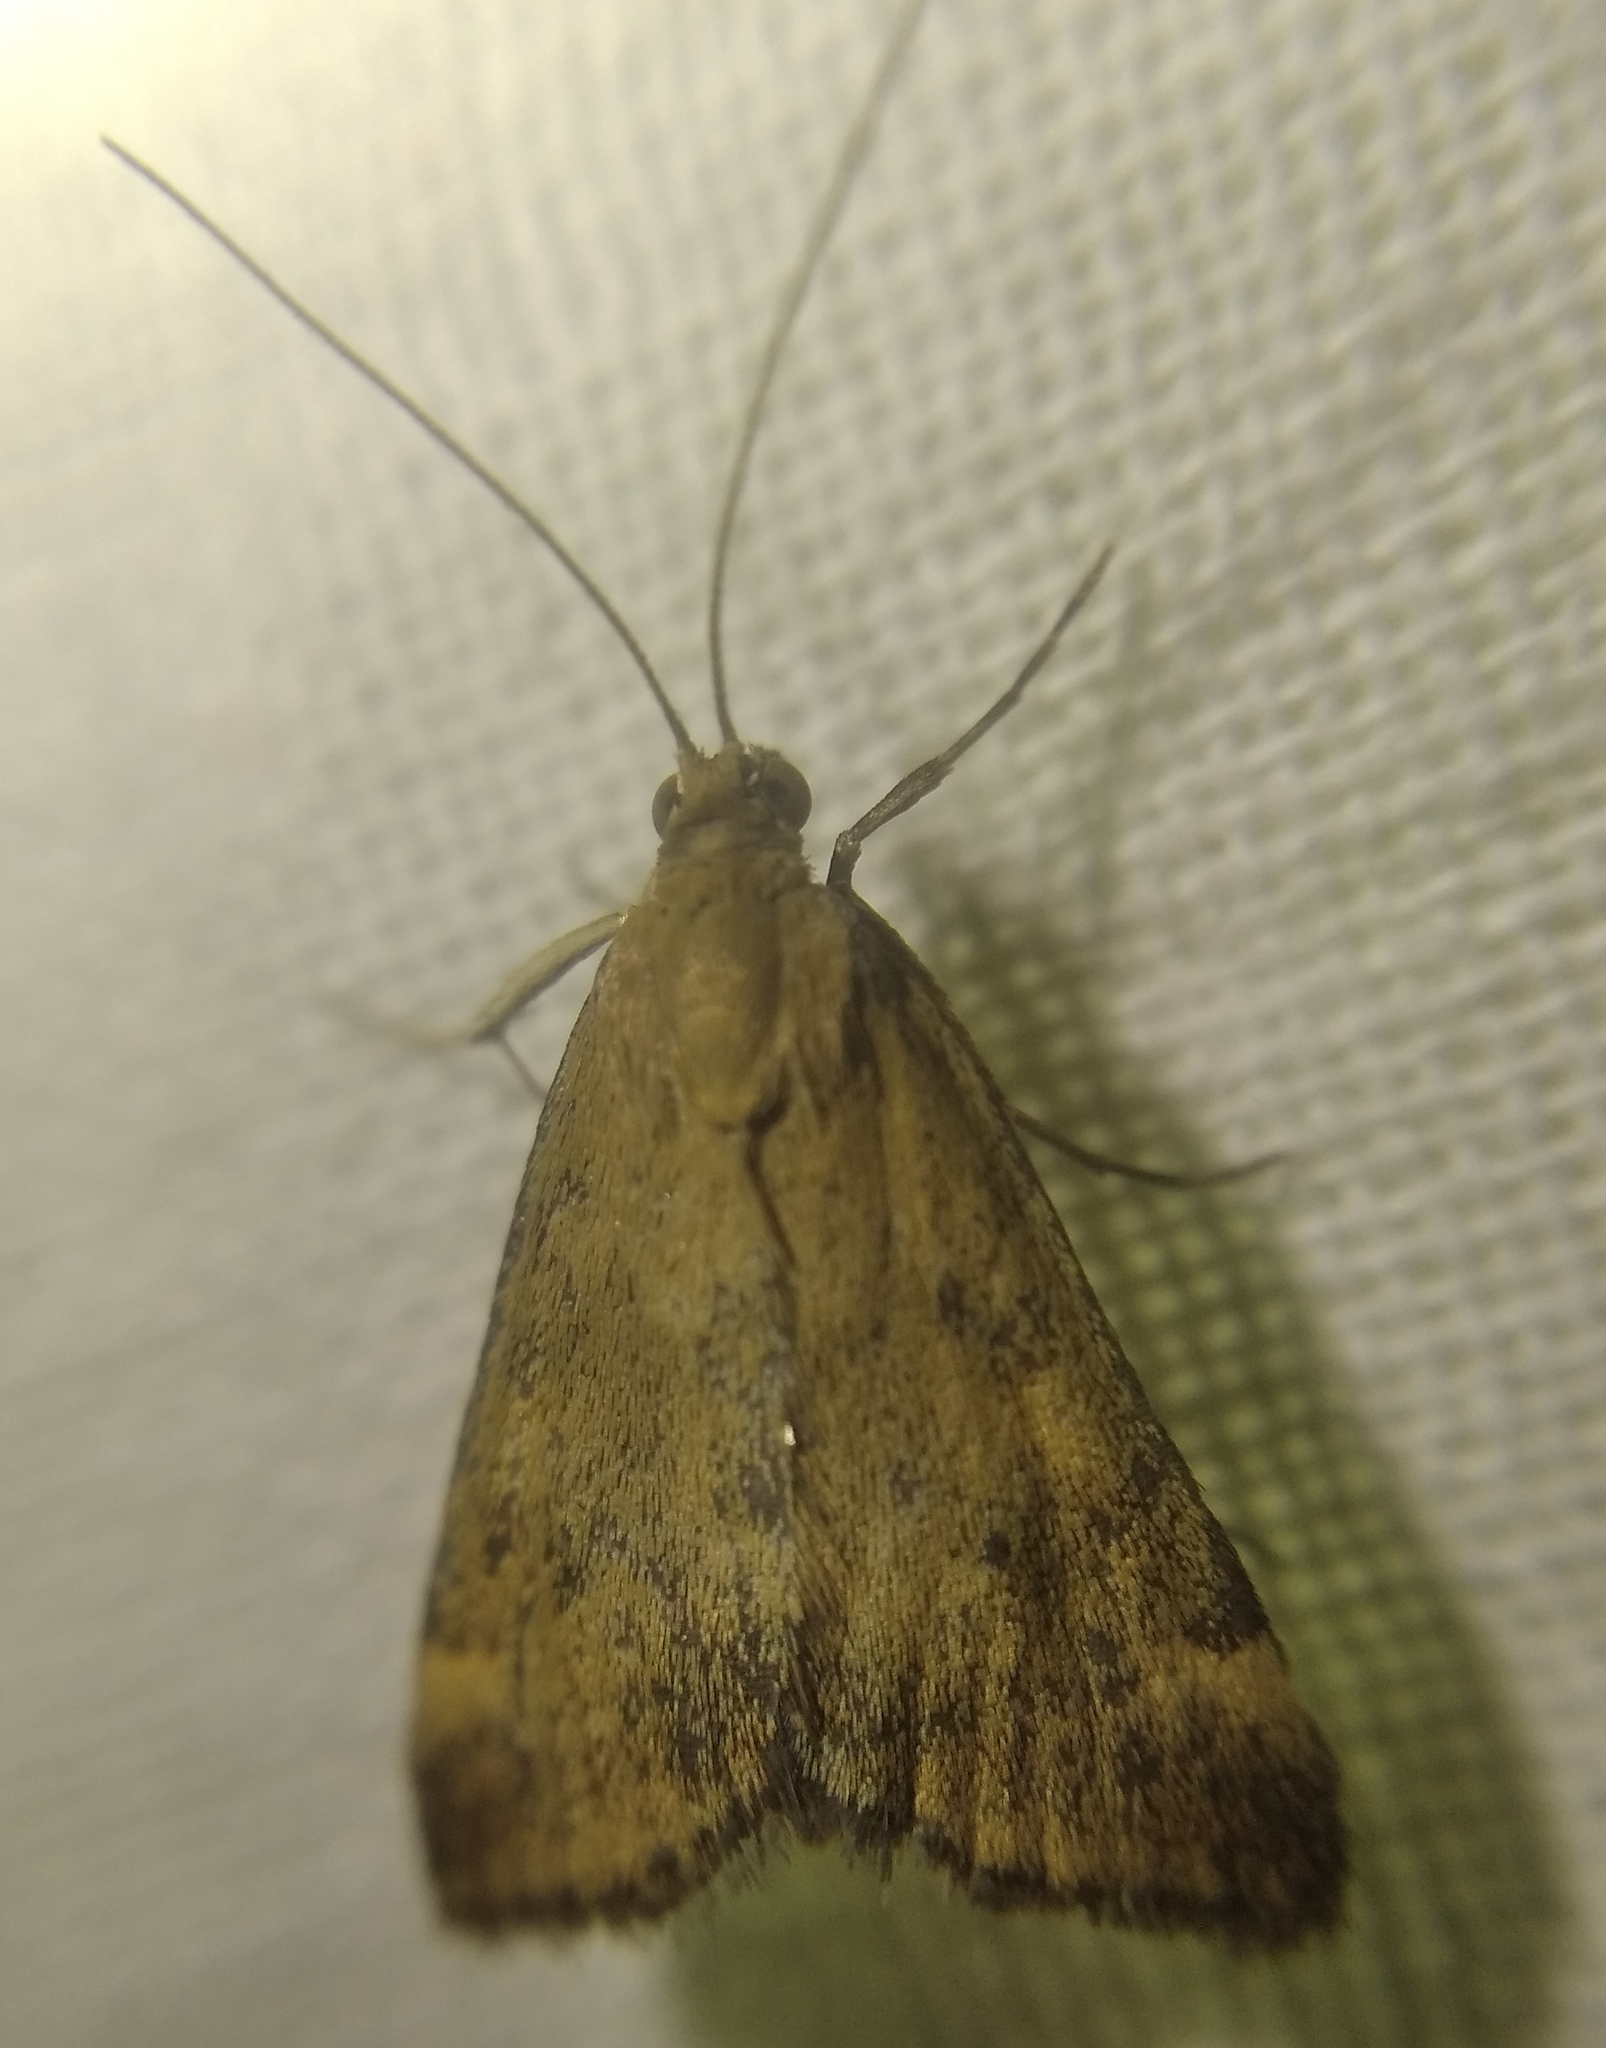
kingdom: Animalia
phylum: Arthropoda
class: Insecta
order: Lepidoptera
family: Crambidae
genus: Pyrausta
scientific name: Pyrausta despicata
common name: Straw-barred pearl
